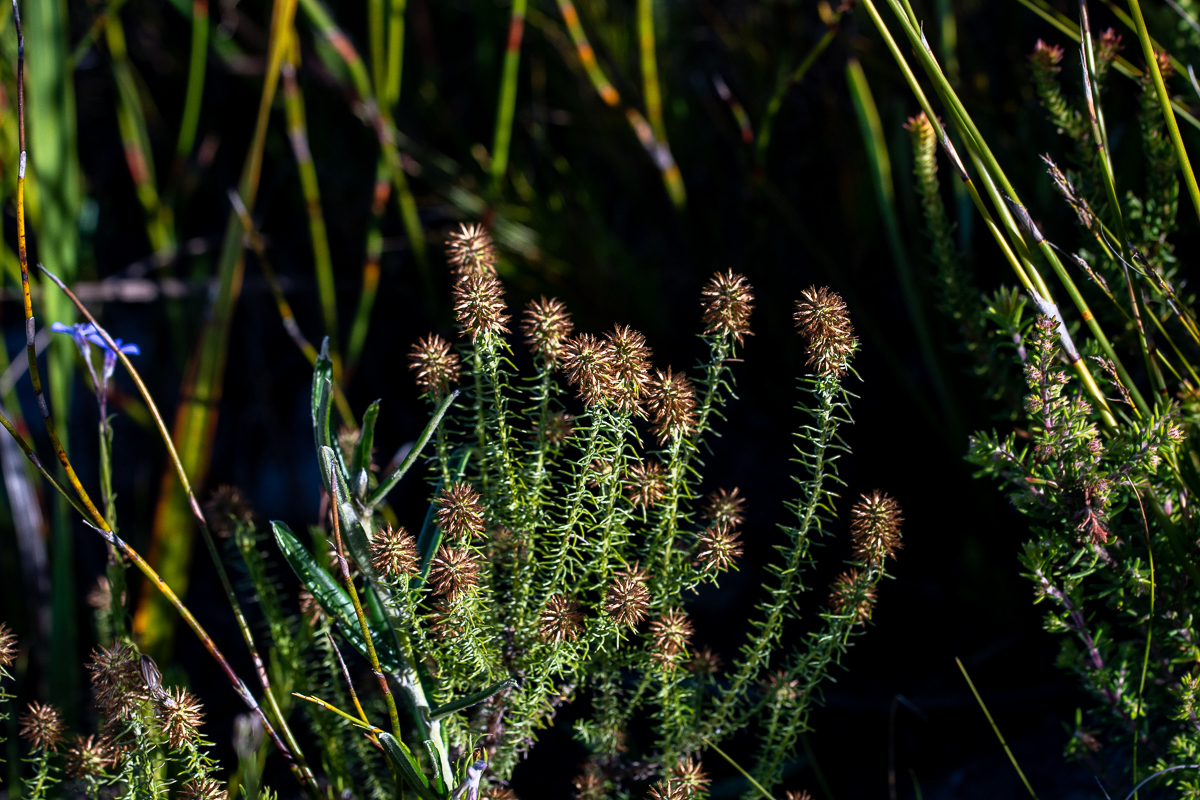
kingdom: Plantae
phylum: Tracheophyta
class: Magnoliopsida
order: Asterales
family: Asteraceae
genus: Seriphium
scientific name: Seriphium cinereum
